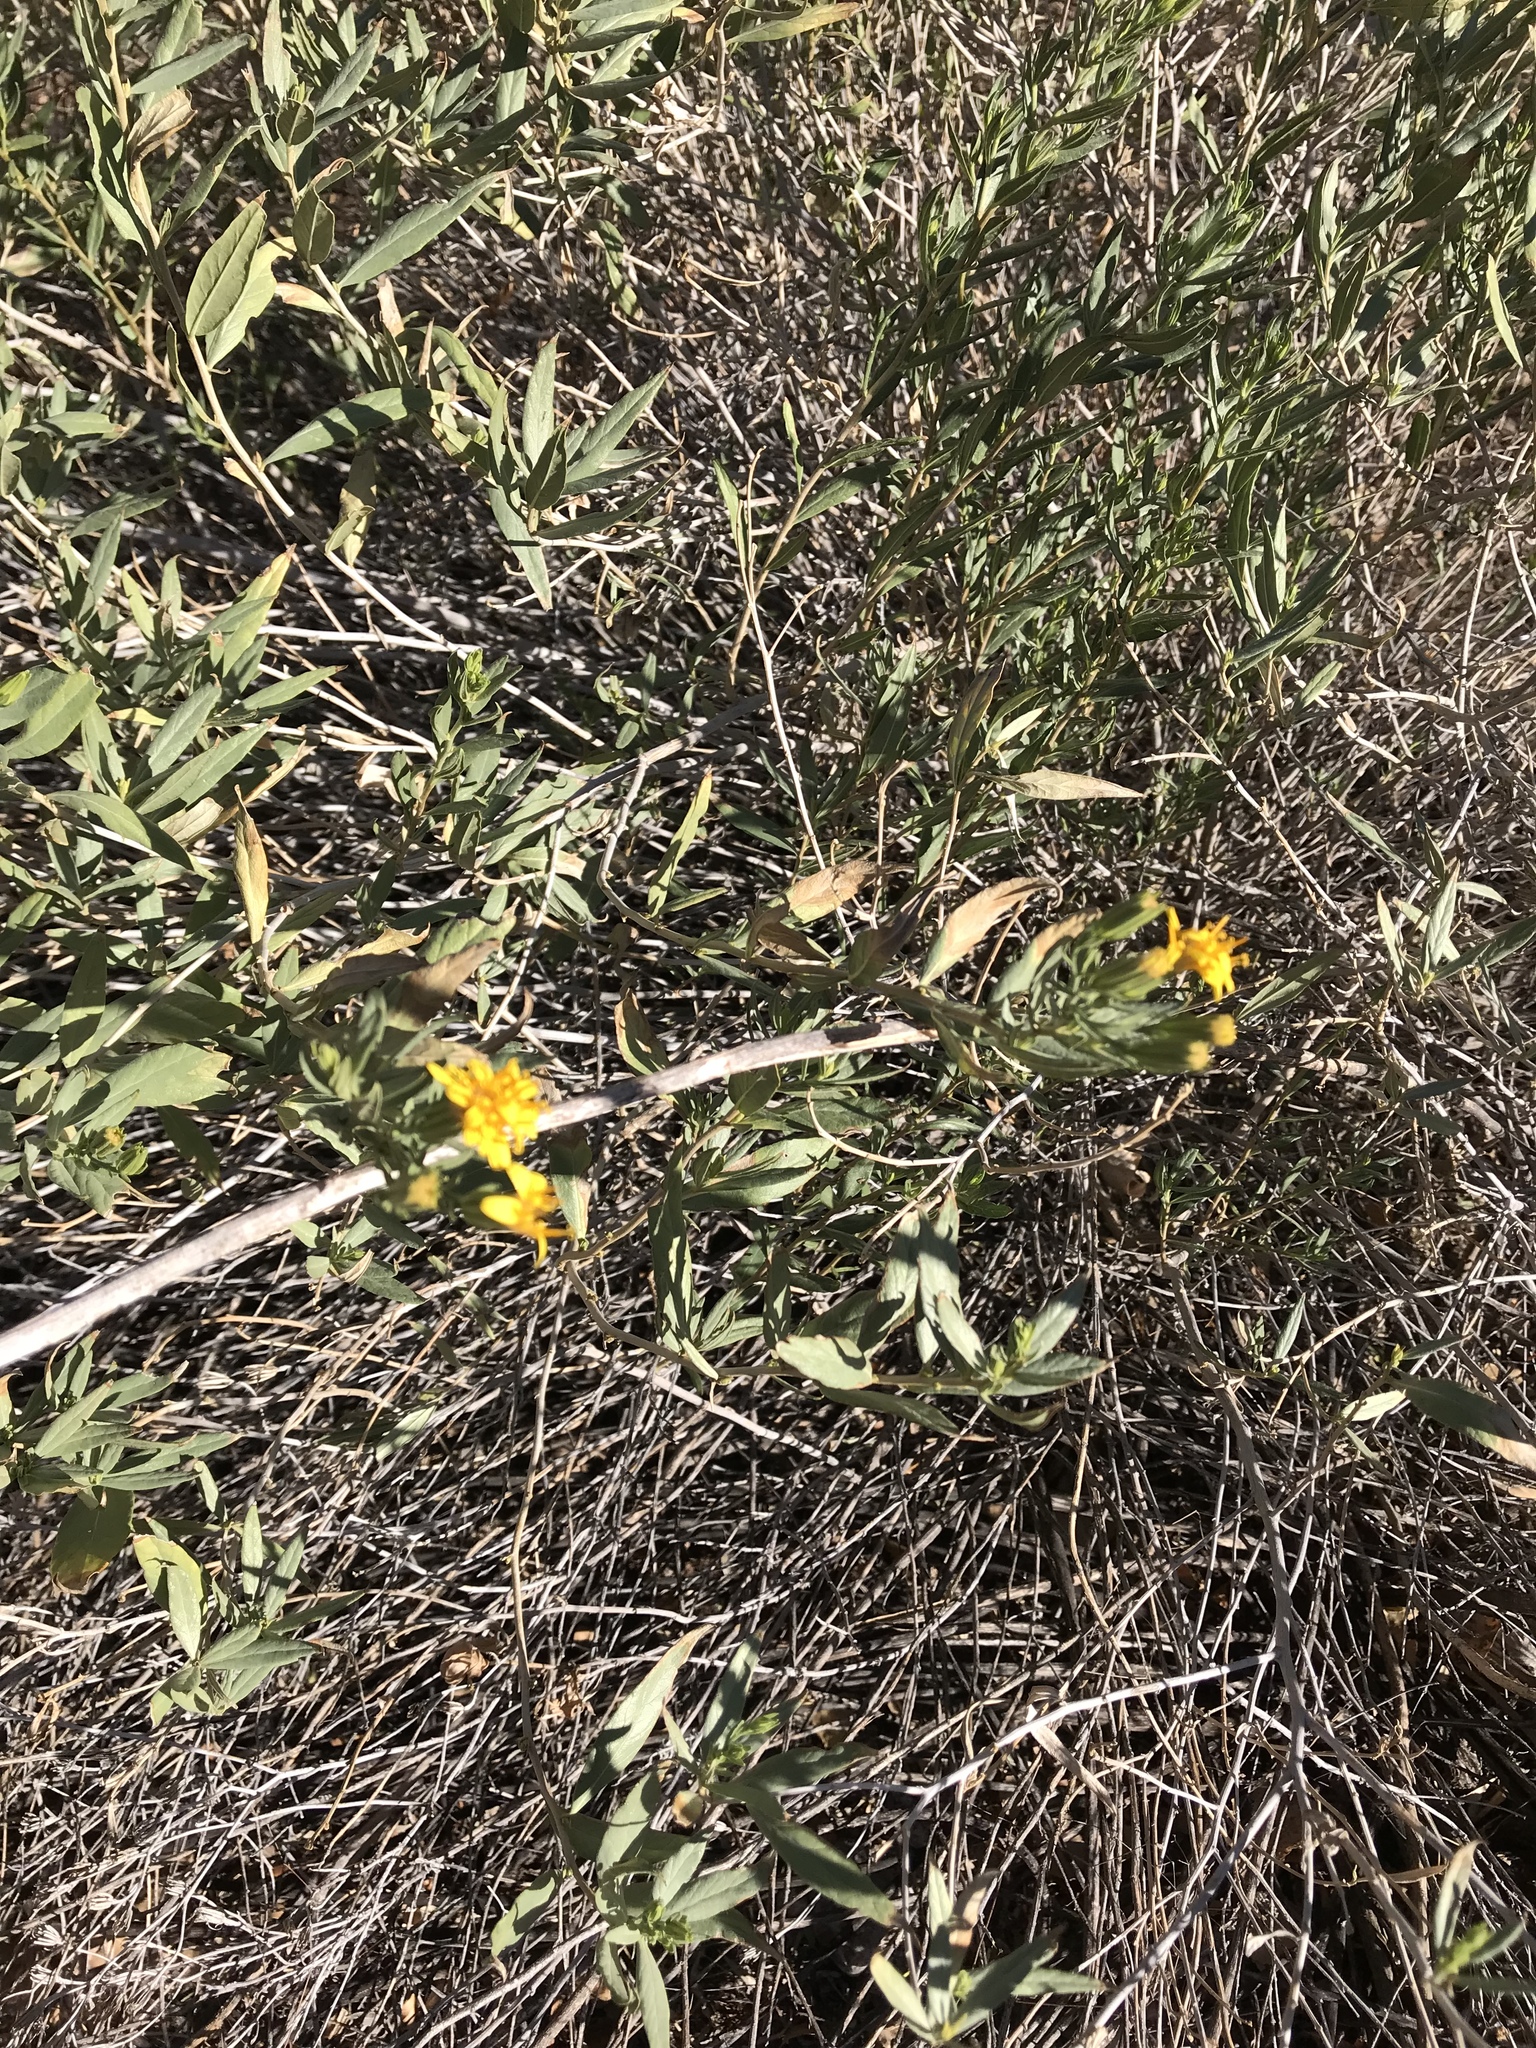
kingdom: Plantae
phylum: Tracheophyta
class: Magnoliopsida
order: Asterales
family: Asteraceae
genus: Trixis
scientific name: Trixis californica
